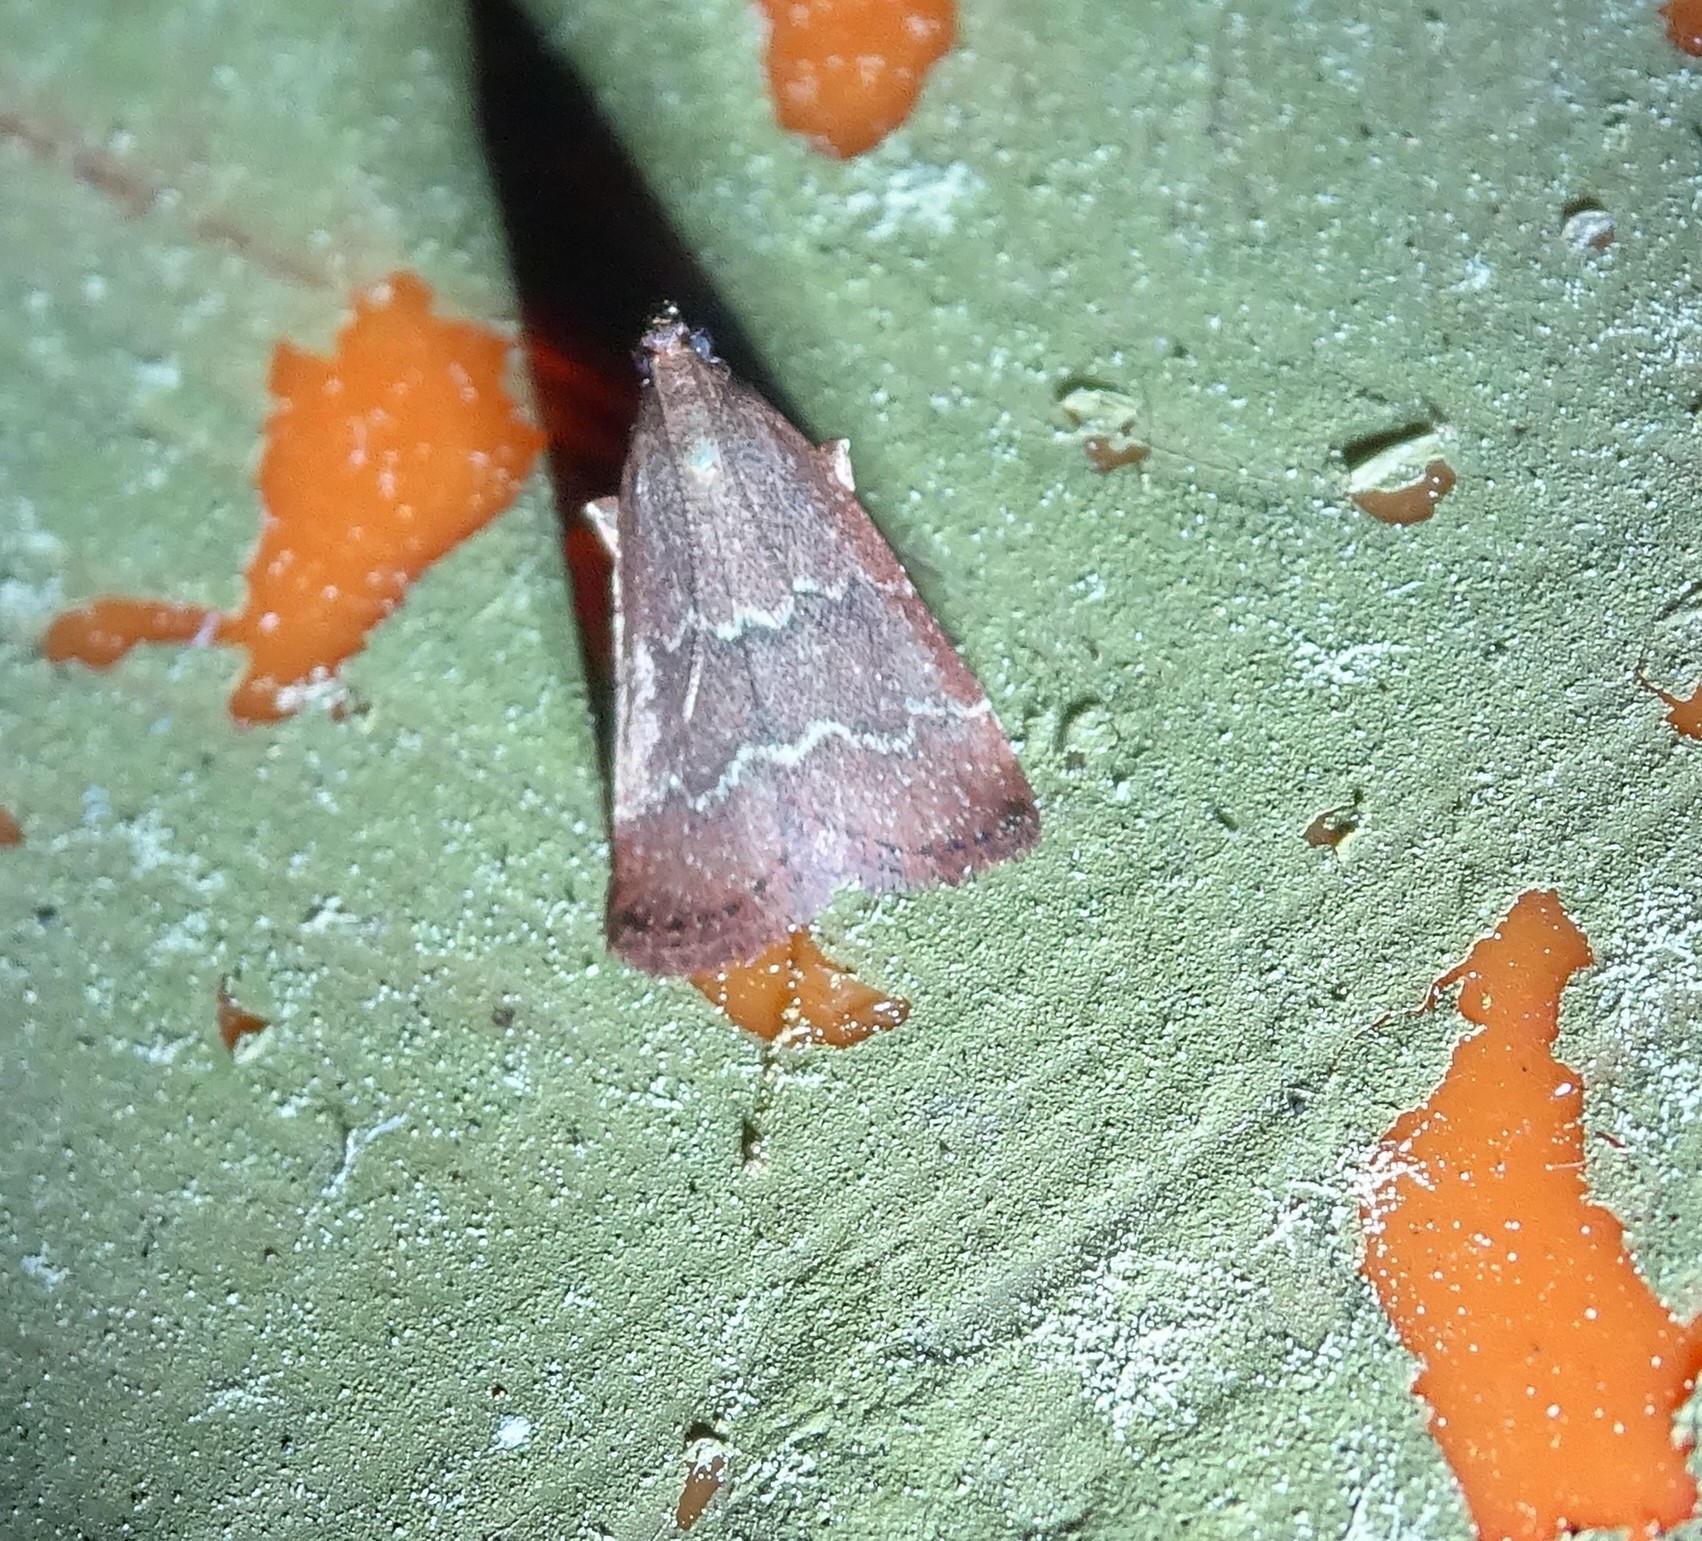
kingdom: Animalia
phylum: Arthropoda
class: Insecta
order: Lepidoptera
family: Pyralidae
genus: Arta
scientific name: Arta
